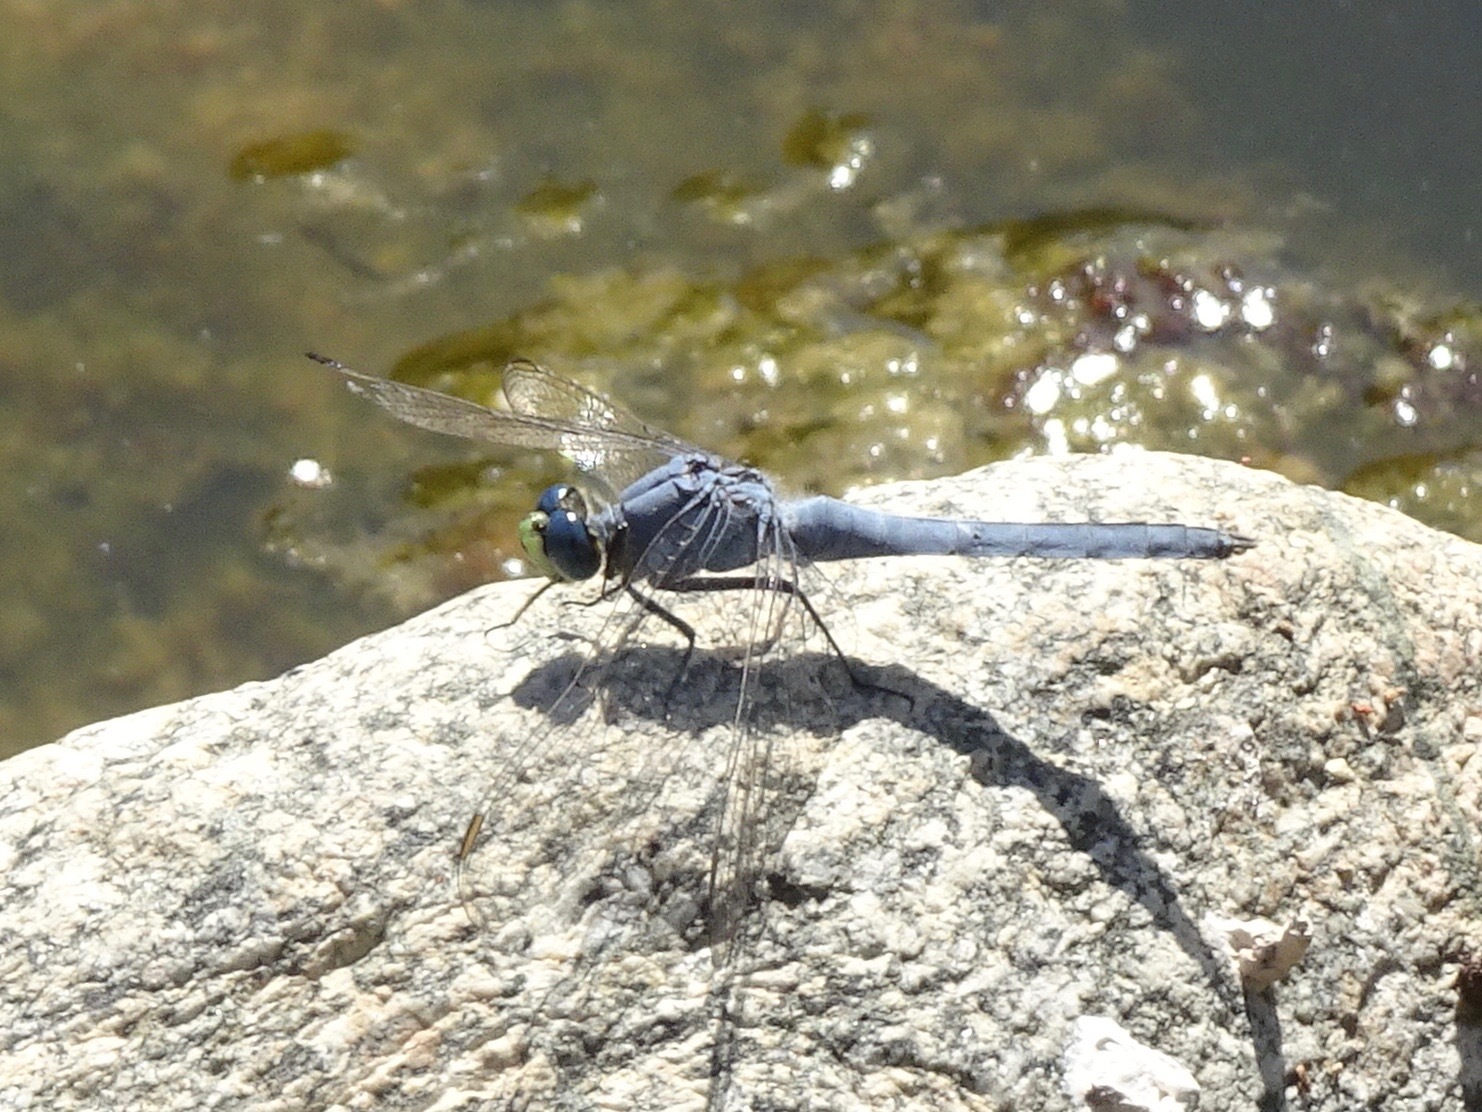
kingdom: Animalia
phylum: Arthropoda
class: Insecta
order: Odonata
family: Libellulidae
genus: Erythemis
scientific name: Erythemis collocata
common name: Western pondhawk
